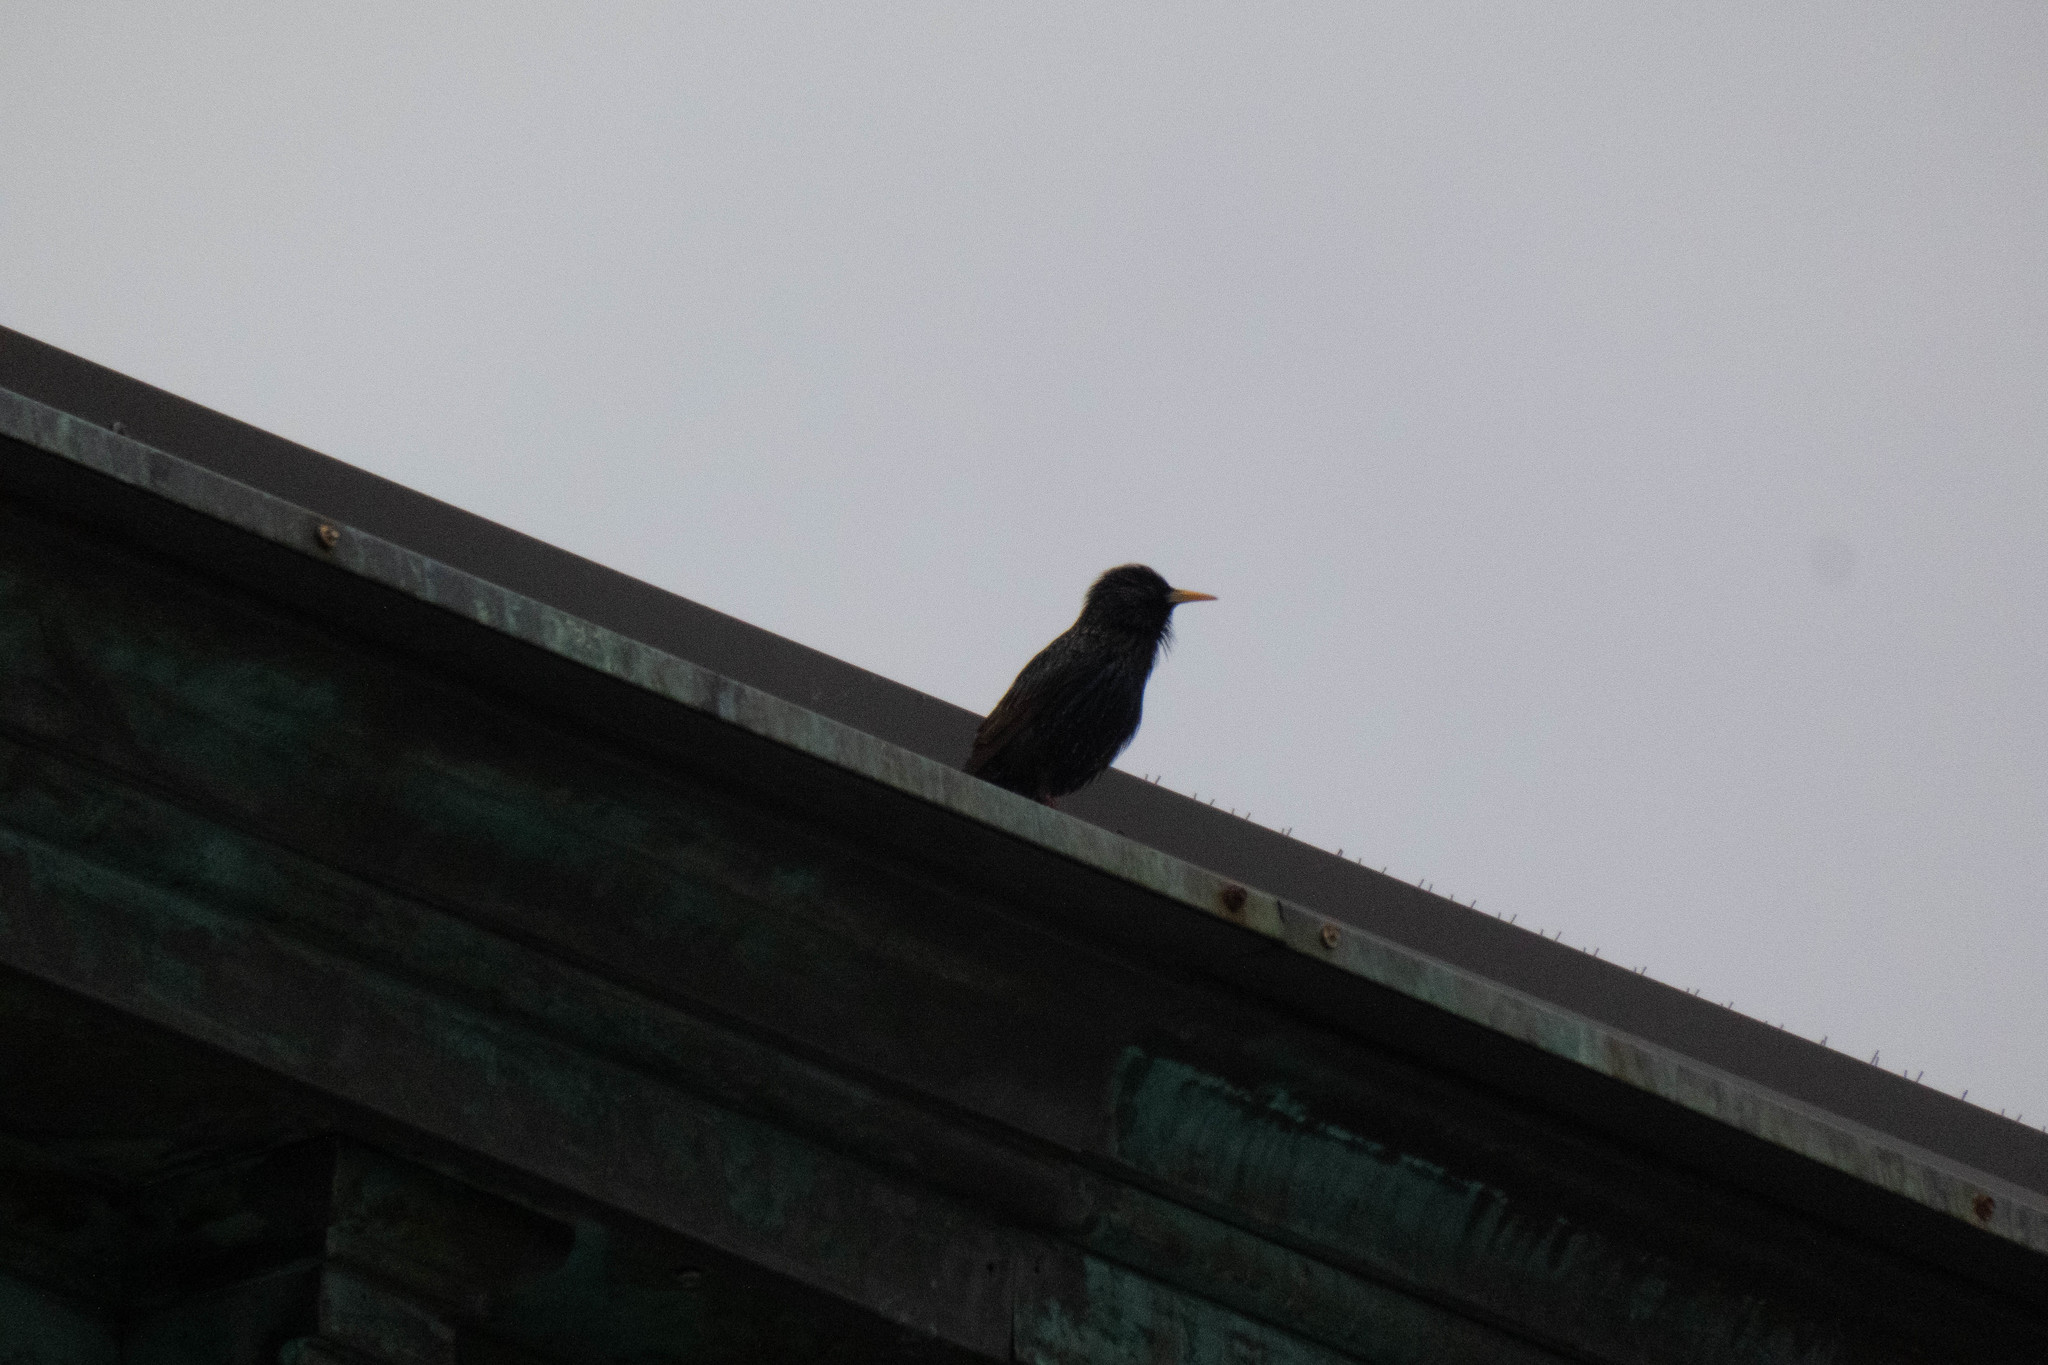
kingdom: Animalia
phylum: Chordata
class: Aves
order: Passeriformes
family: Sturnidae
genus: Sturnus
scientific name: Sturnus vulgaris
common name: Common starling
